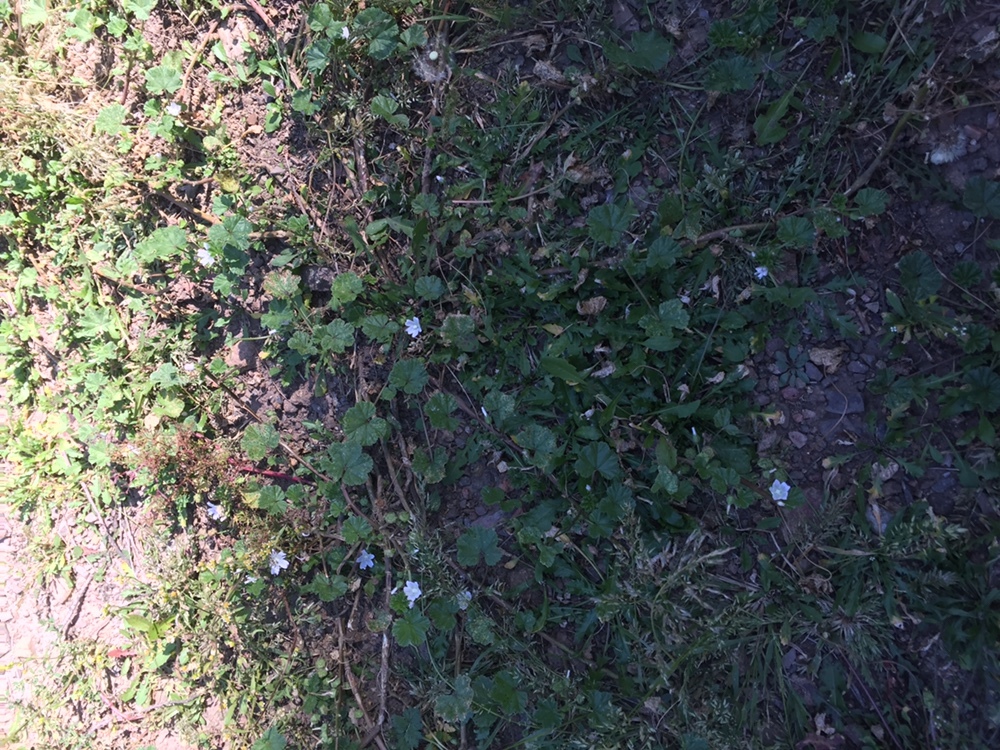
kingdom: Plantae
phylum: Tracheophyta
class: Magnoliopsida
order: Malvales
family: Malvaceae
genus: Malva
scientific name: Malva neglecta
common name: Common mallow
